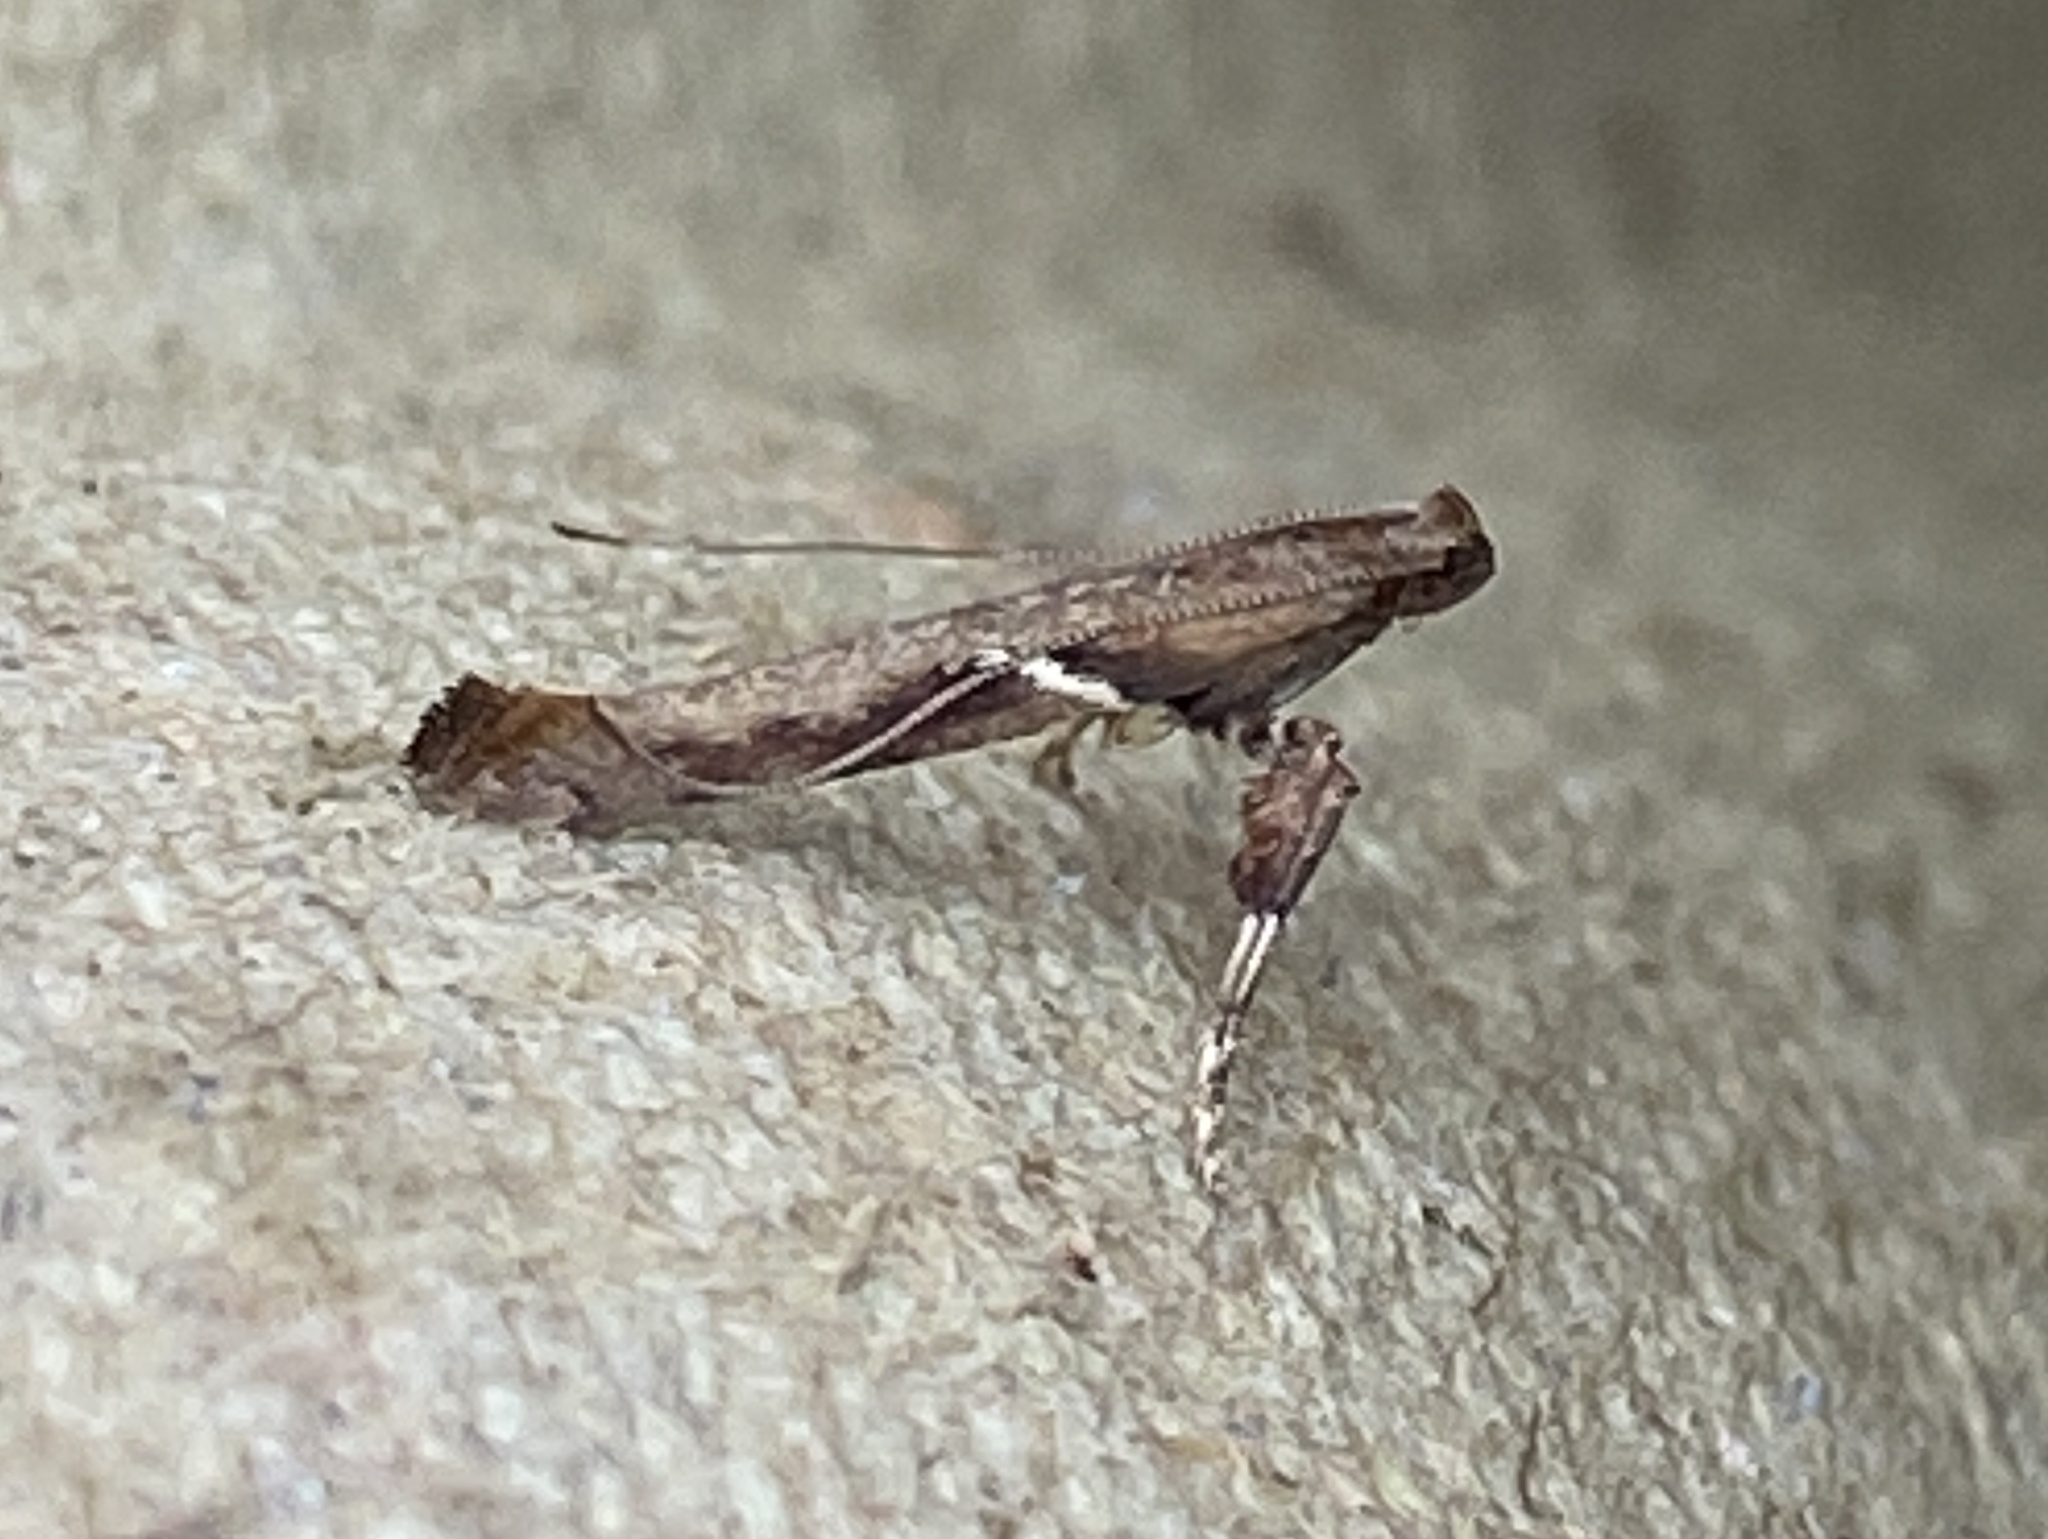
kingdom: Animalia
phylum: Arthropoda
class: Insecta
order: Lepidoptera
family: Gracillariidae
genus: Caloptilia
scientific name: Caloptilia stigmatella
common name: White-triangle slender
